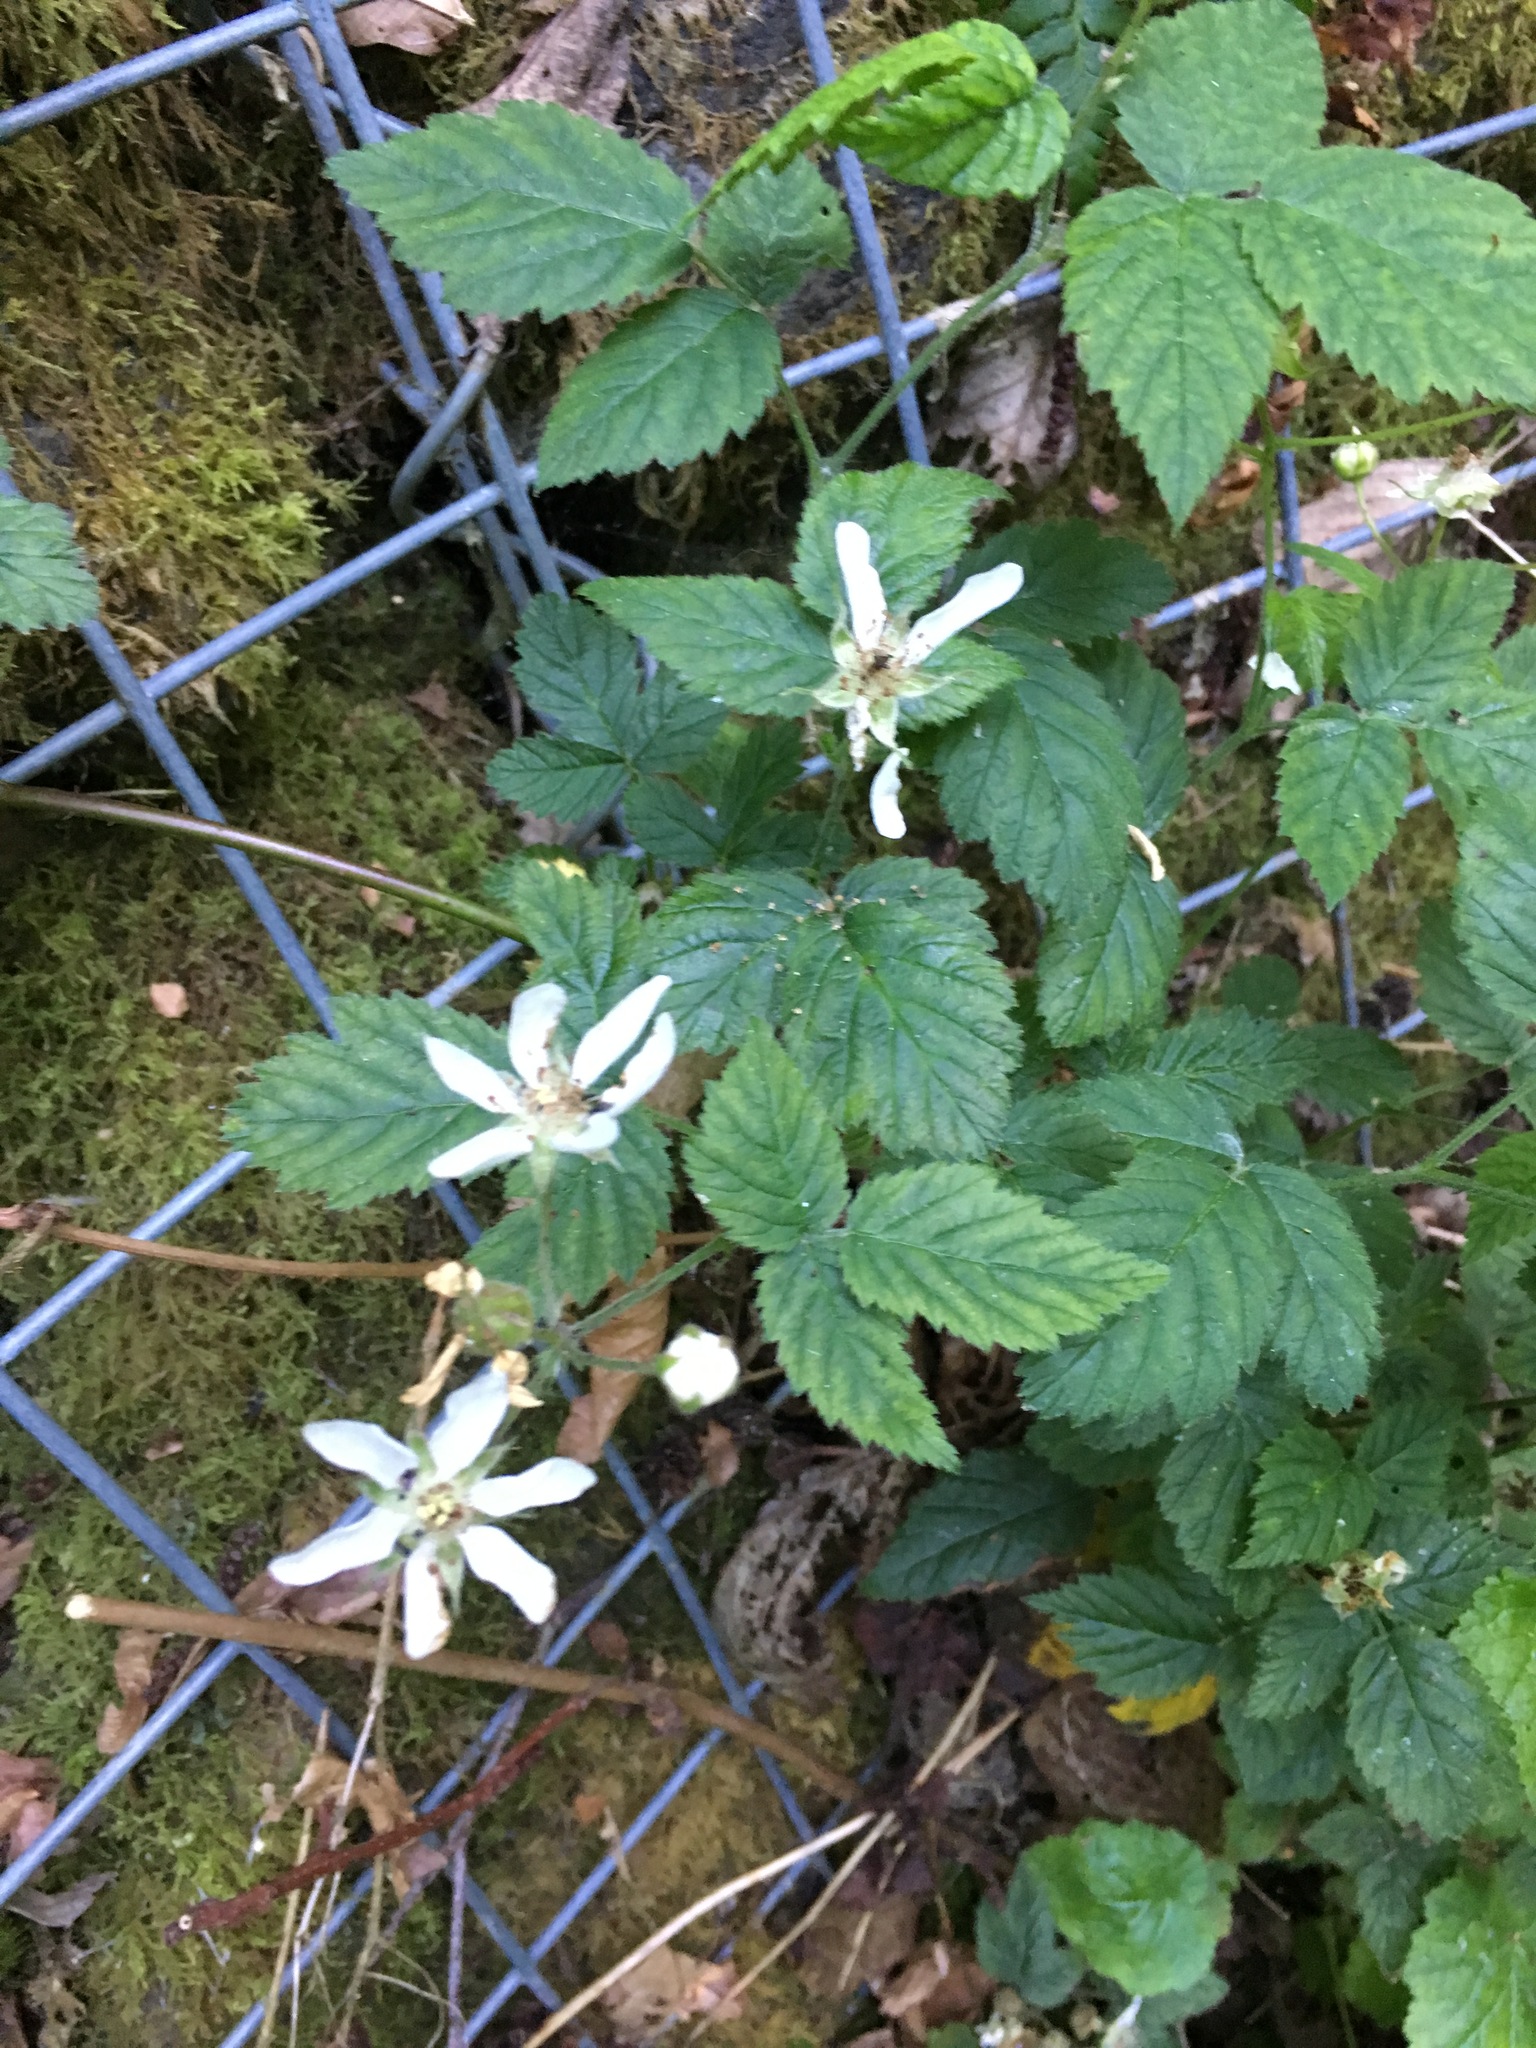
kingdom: Plantae
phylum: Tracheophyta
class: Magnoliopsida
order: Rosales
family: Rosaceae
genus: Rubus
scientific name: Rubus ursinus
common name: Pacific blackberry
